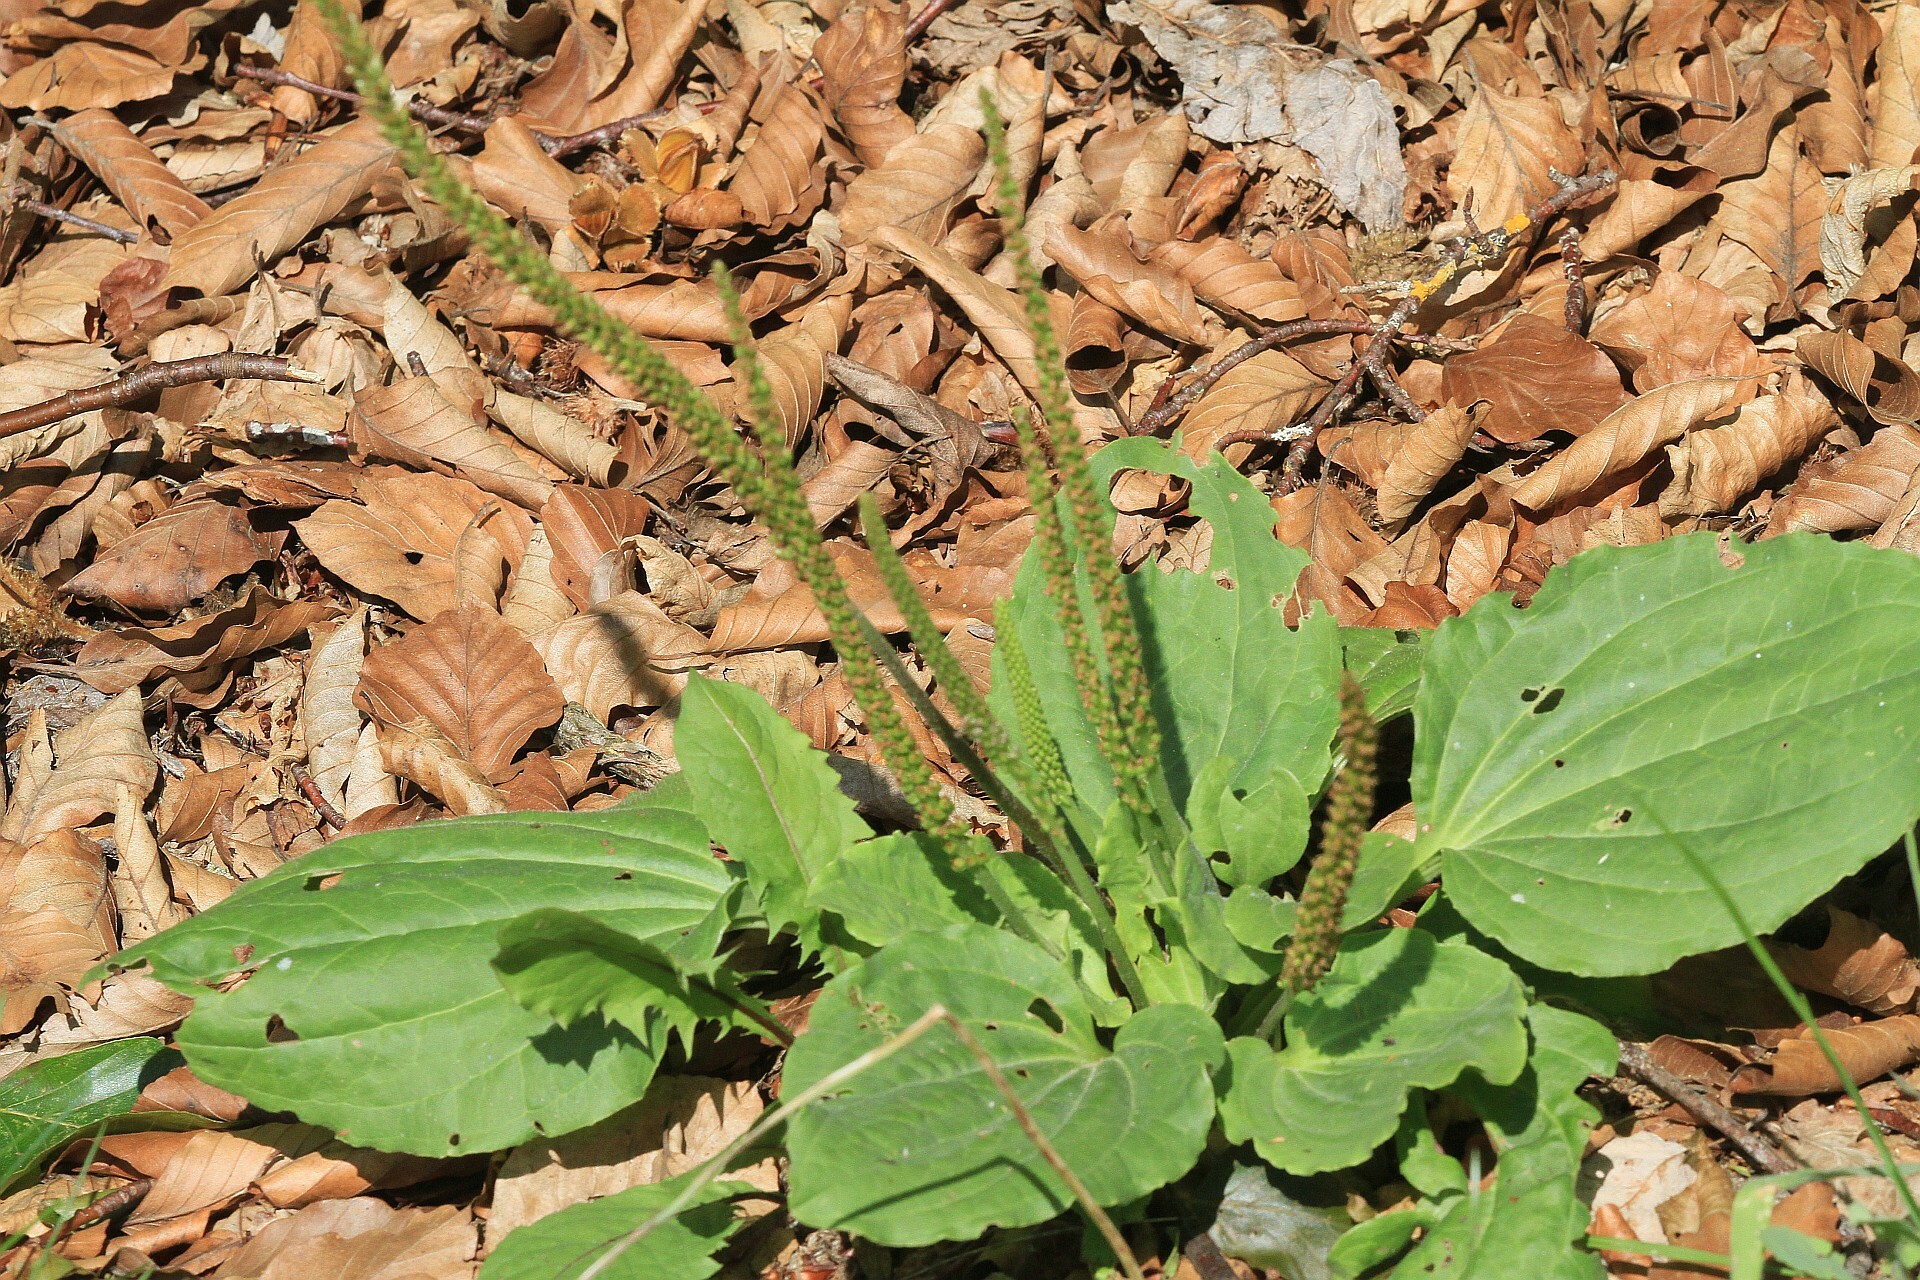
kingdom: Plantae
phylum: Tracheophyta
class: Magnoliopsida
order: Lamiales
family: Plantaginaceae
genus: Plantago
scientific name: Plantago major
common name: Common plantain
